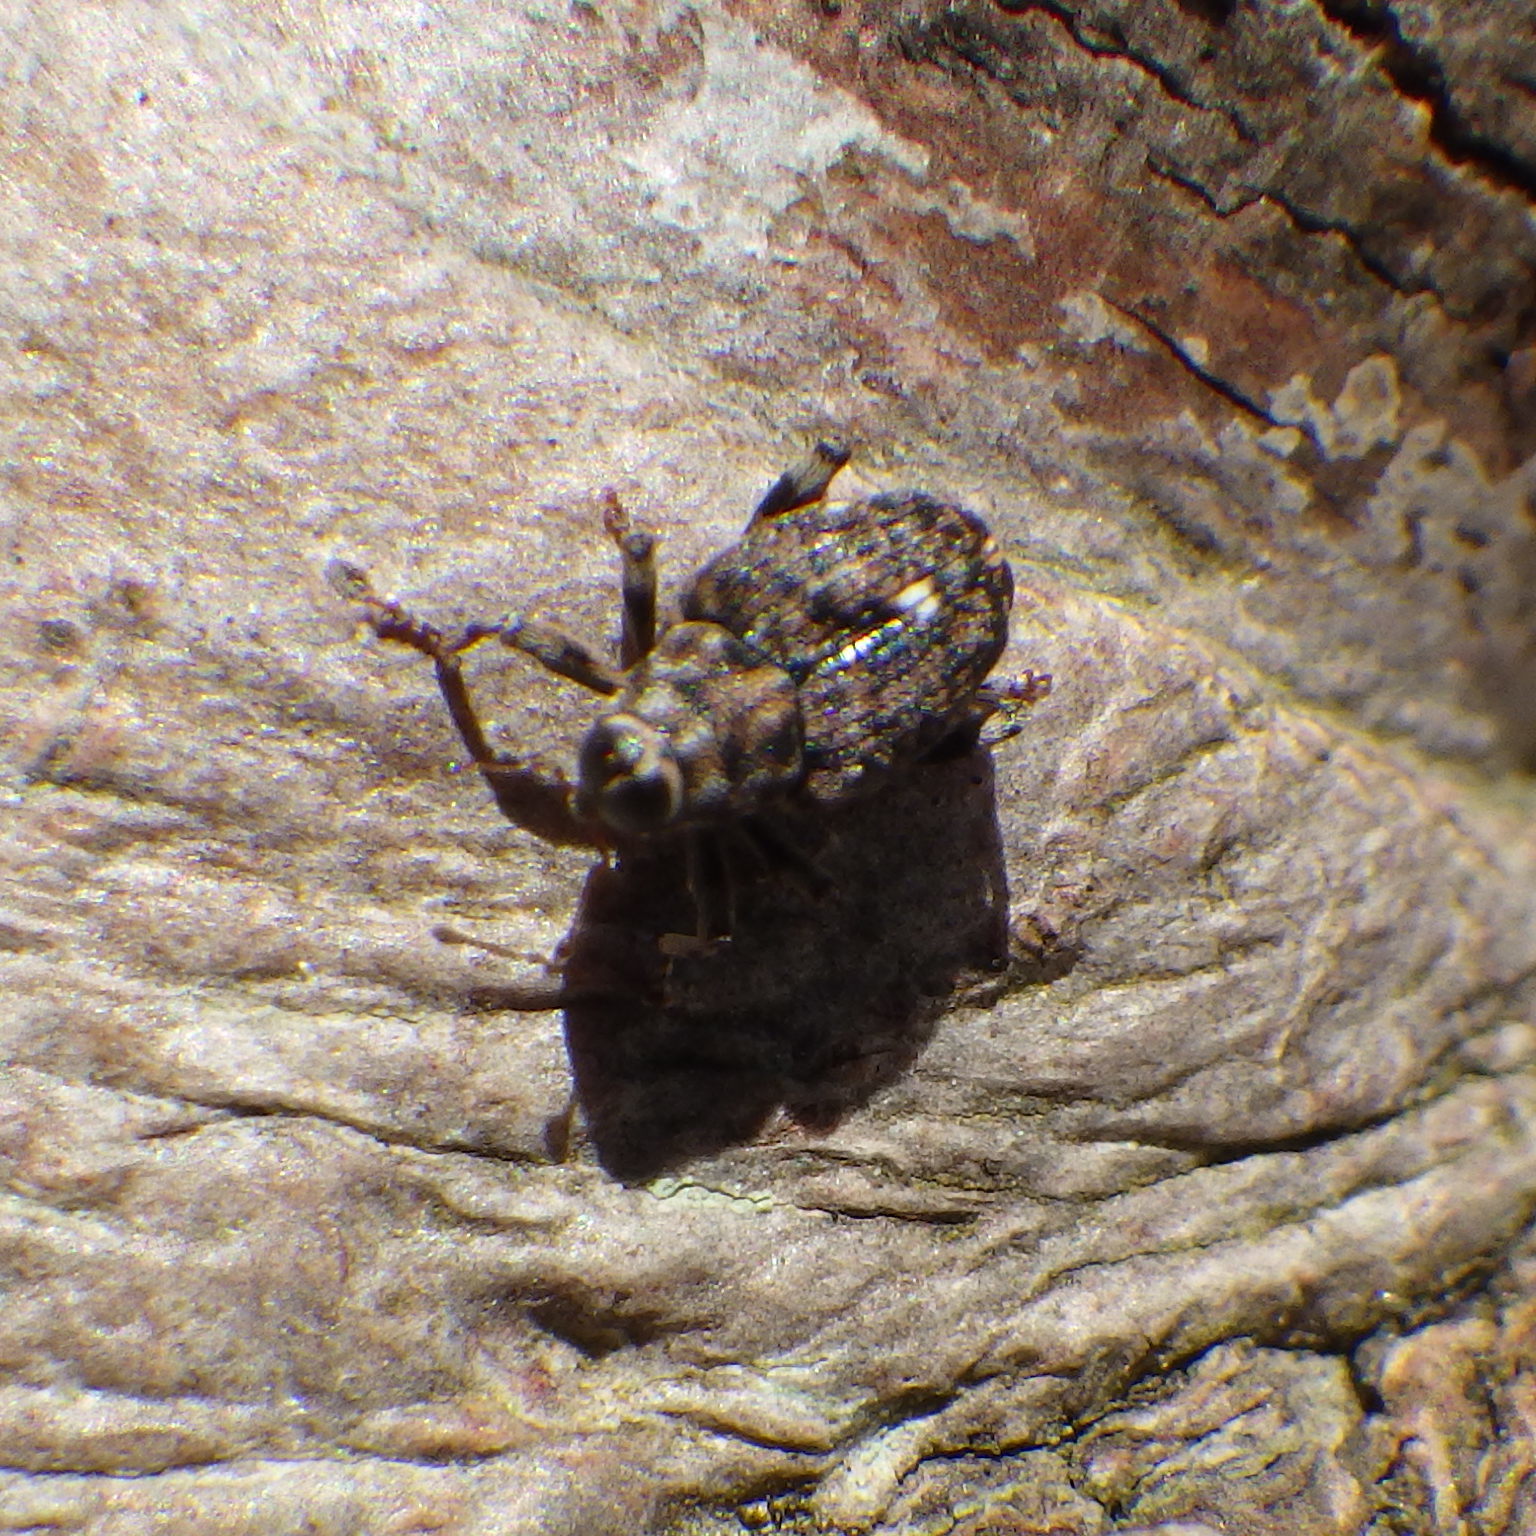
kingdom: Animalia
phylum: Arthropoda
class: Insecta
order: Coleoptera
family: Curculionidae
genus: Lechriops
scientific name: Lechriops oculatus
